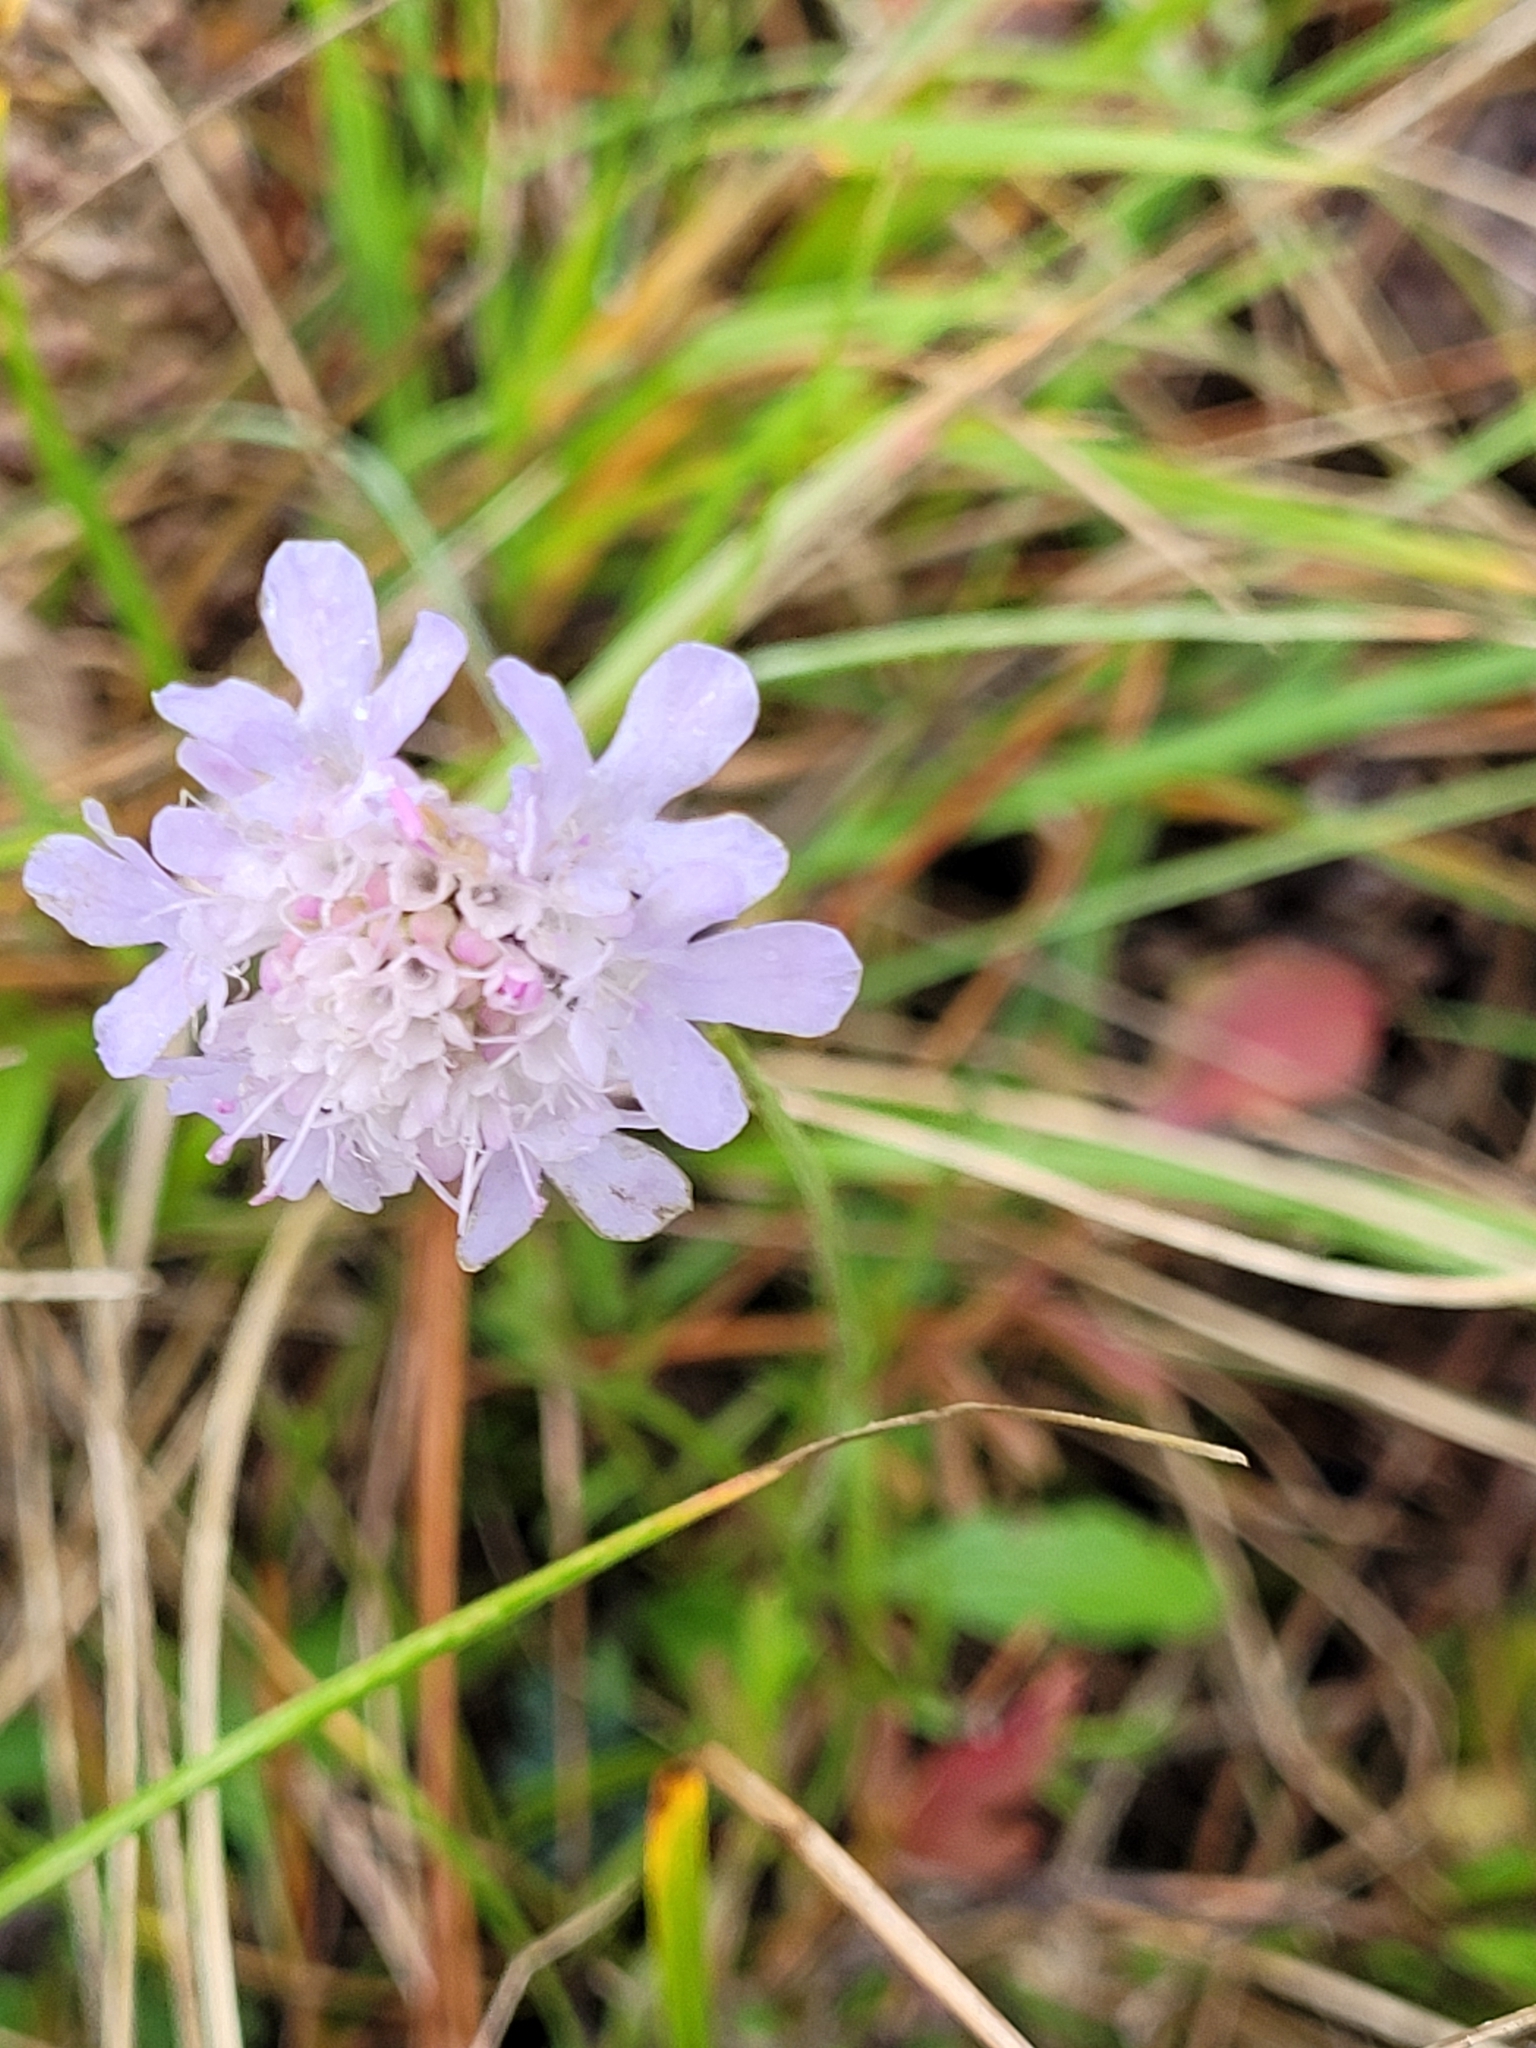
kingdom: Plantae
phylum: Tracheophyta
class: Magnoliopsida
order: Dipsacales
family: Caprifoliaceae
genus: Scabiosa
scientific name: Scabiosa columbaria
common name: Small scabious
